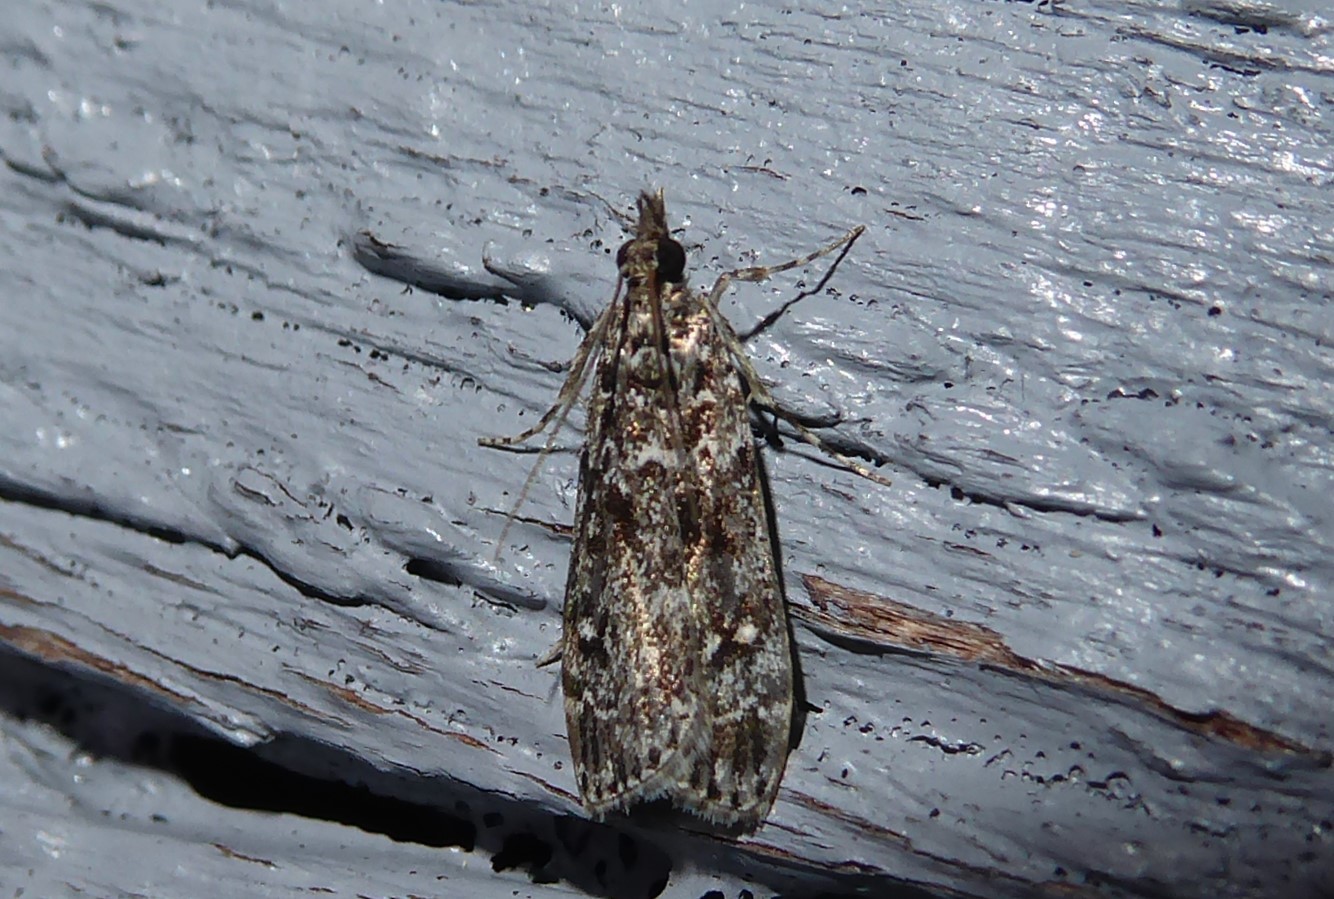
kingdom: Animalia
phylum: Arthropoda
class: Insecta
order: Lepidoptera
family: Crambidae
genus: Eudonia
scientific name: Eudonia philerga
